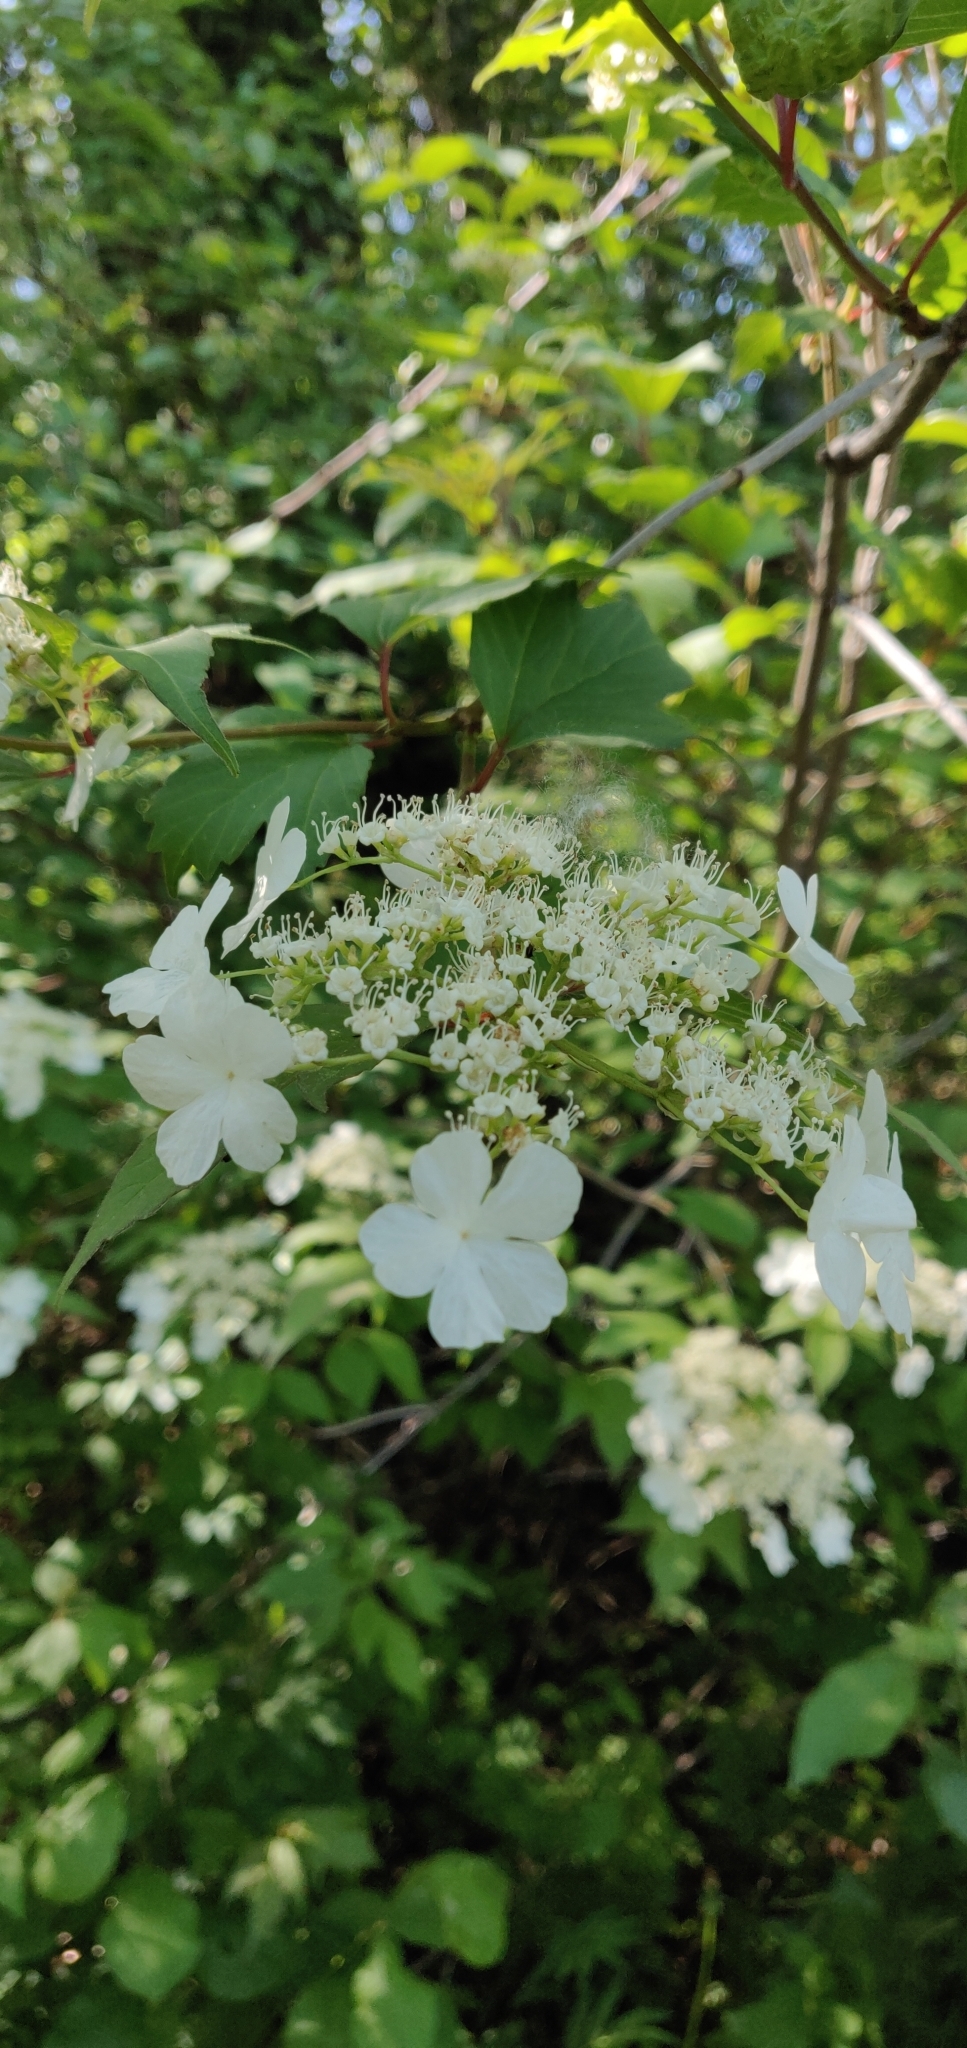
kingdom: Plantae
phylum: Tracheophyta
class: Magnoliopsida
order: Dipsacales
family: Viburnaceae
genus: Viburnum
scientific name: Viburnum opulus
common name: Guelder-rose
